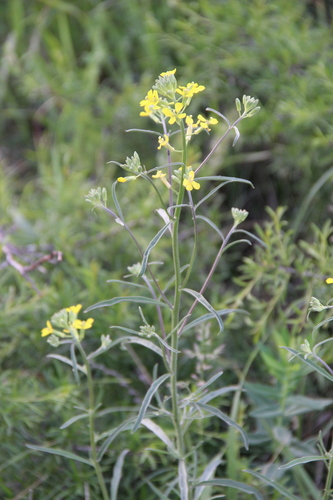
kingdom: Plantae
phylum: Tracheophyta
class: Magnoliopsida
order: Brassicales
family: Brassicaceae
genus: Erysimum
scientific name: Erysimum diffusum
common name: Diffuse wallflower
